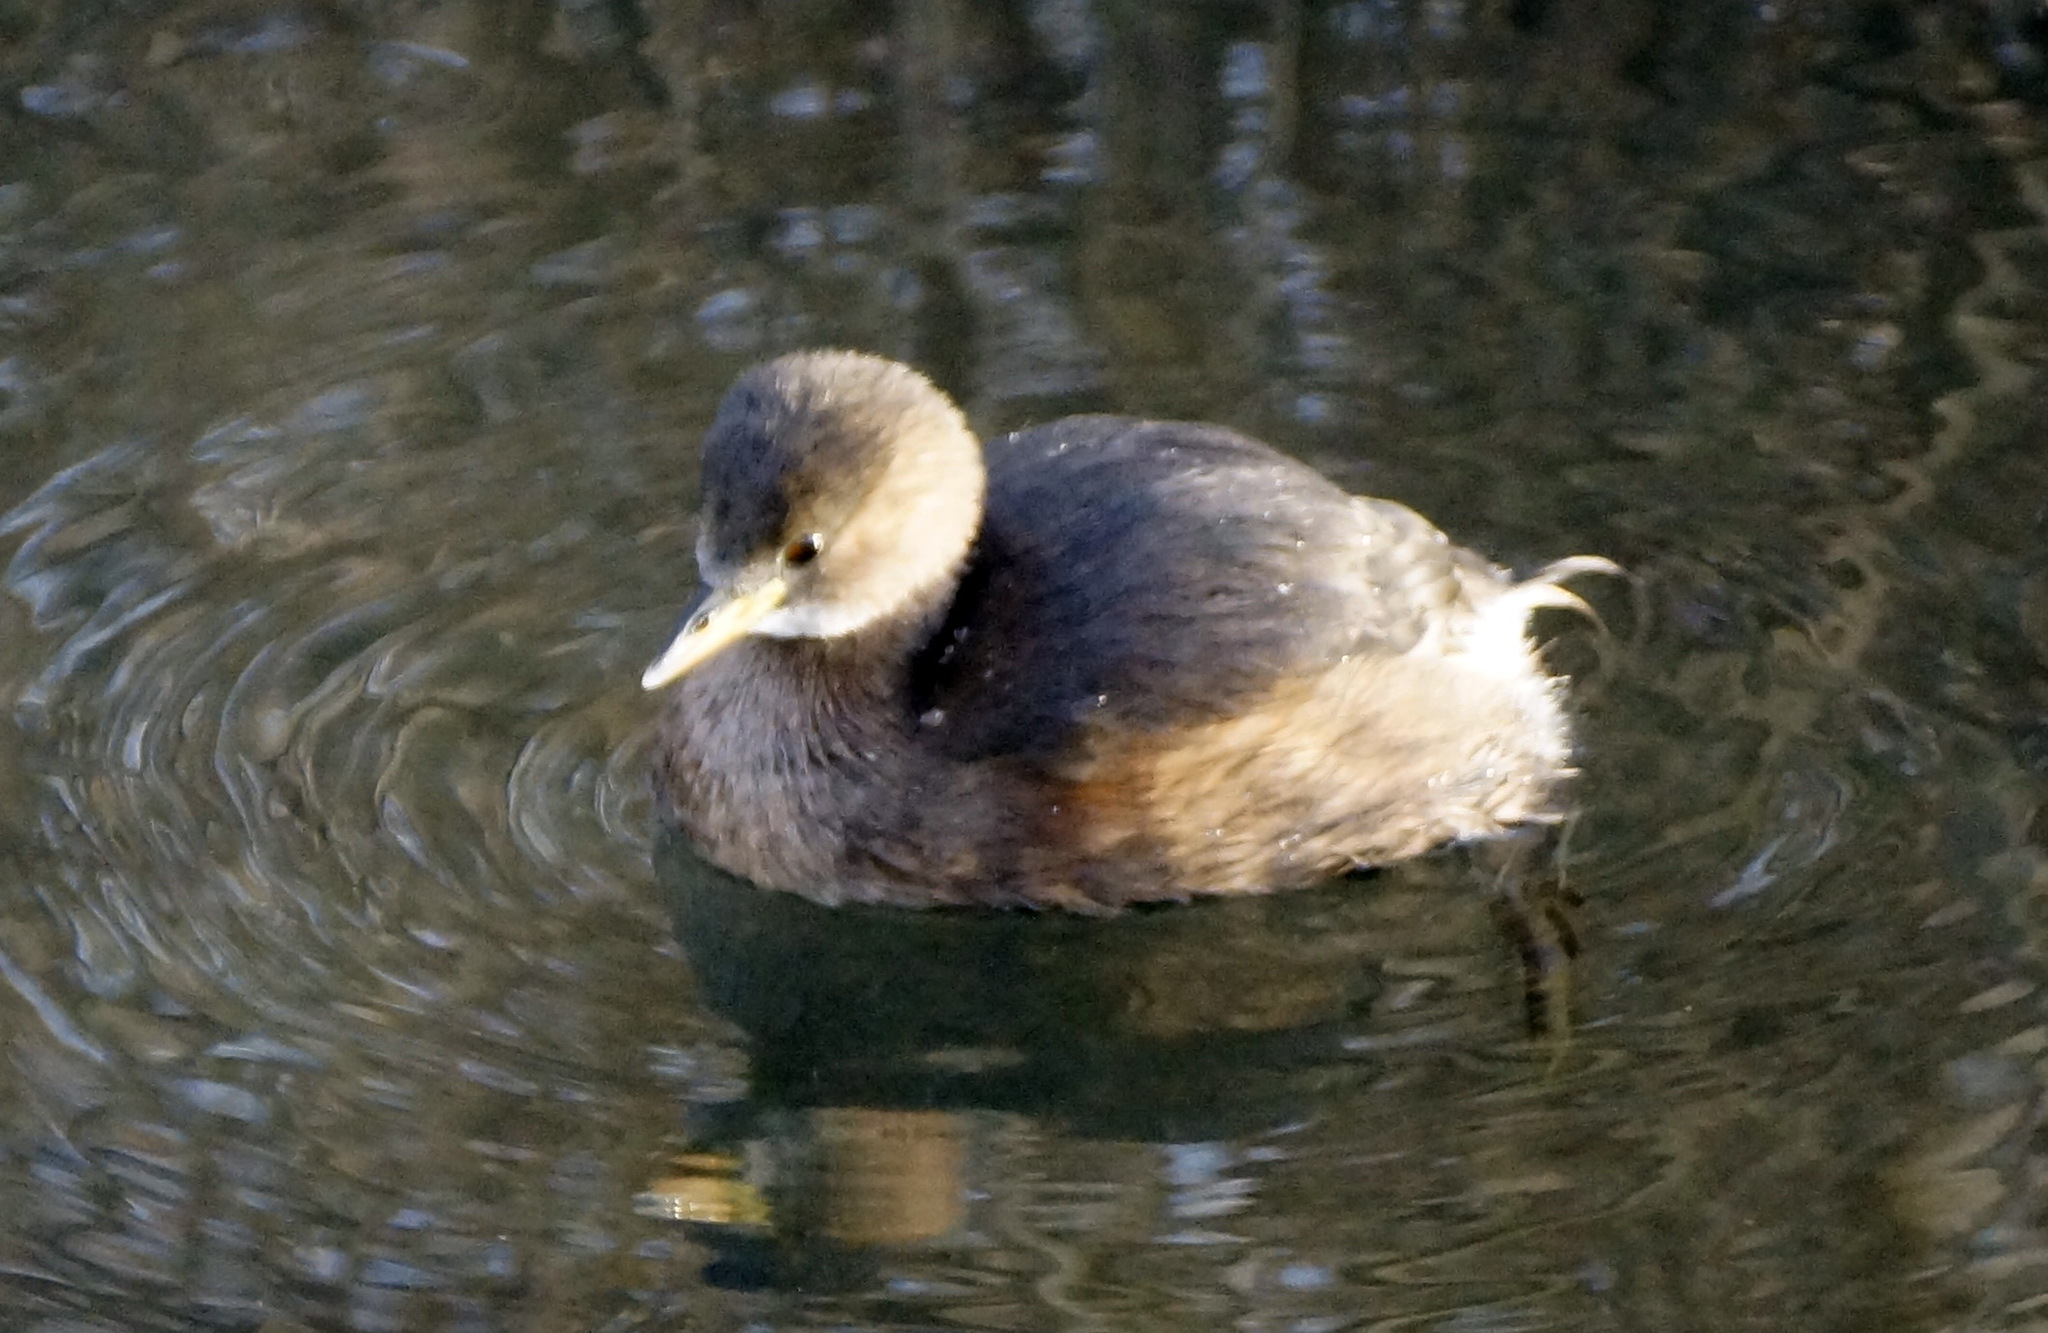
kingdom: Animalia
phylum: Chordata
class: Aves
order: Podicipediformes
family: Podicipedidae
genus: Tachybaptus
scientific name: Tachybaptus ruficollis
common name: Little grebe
